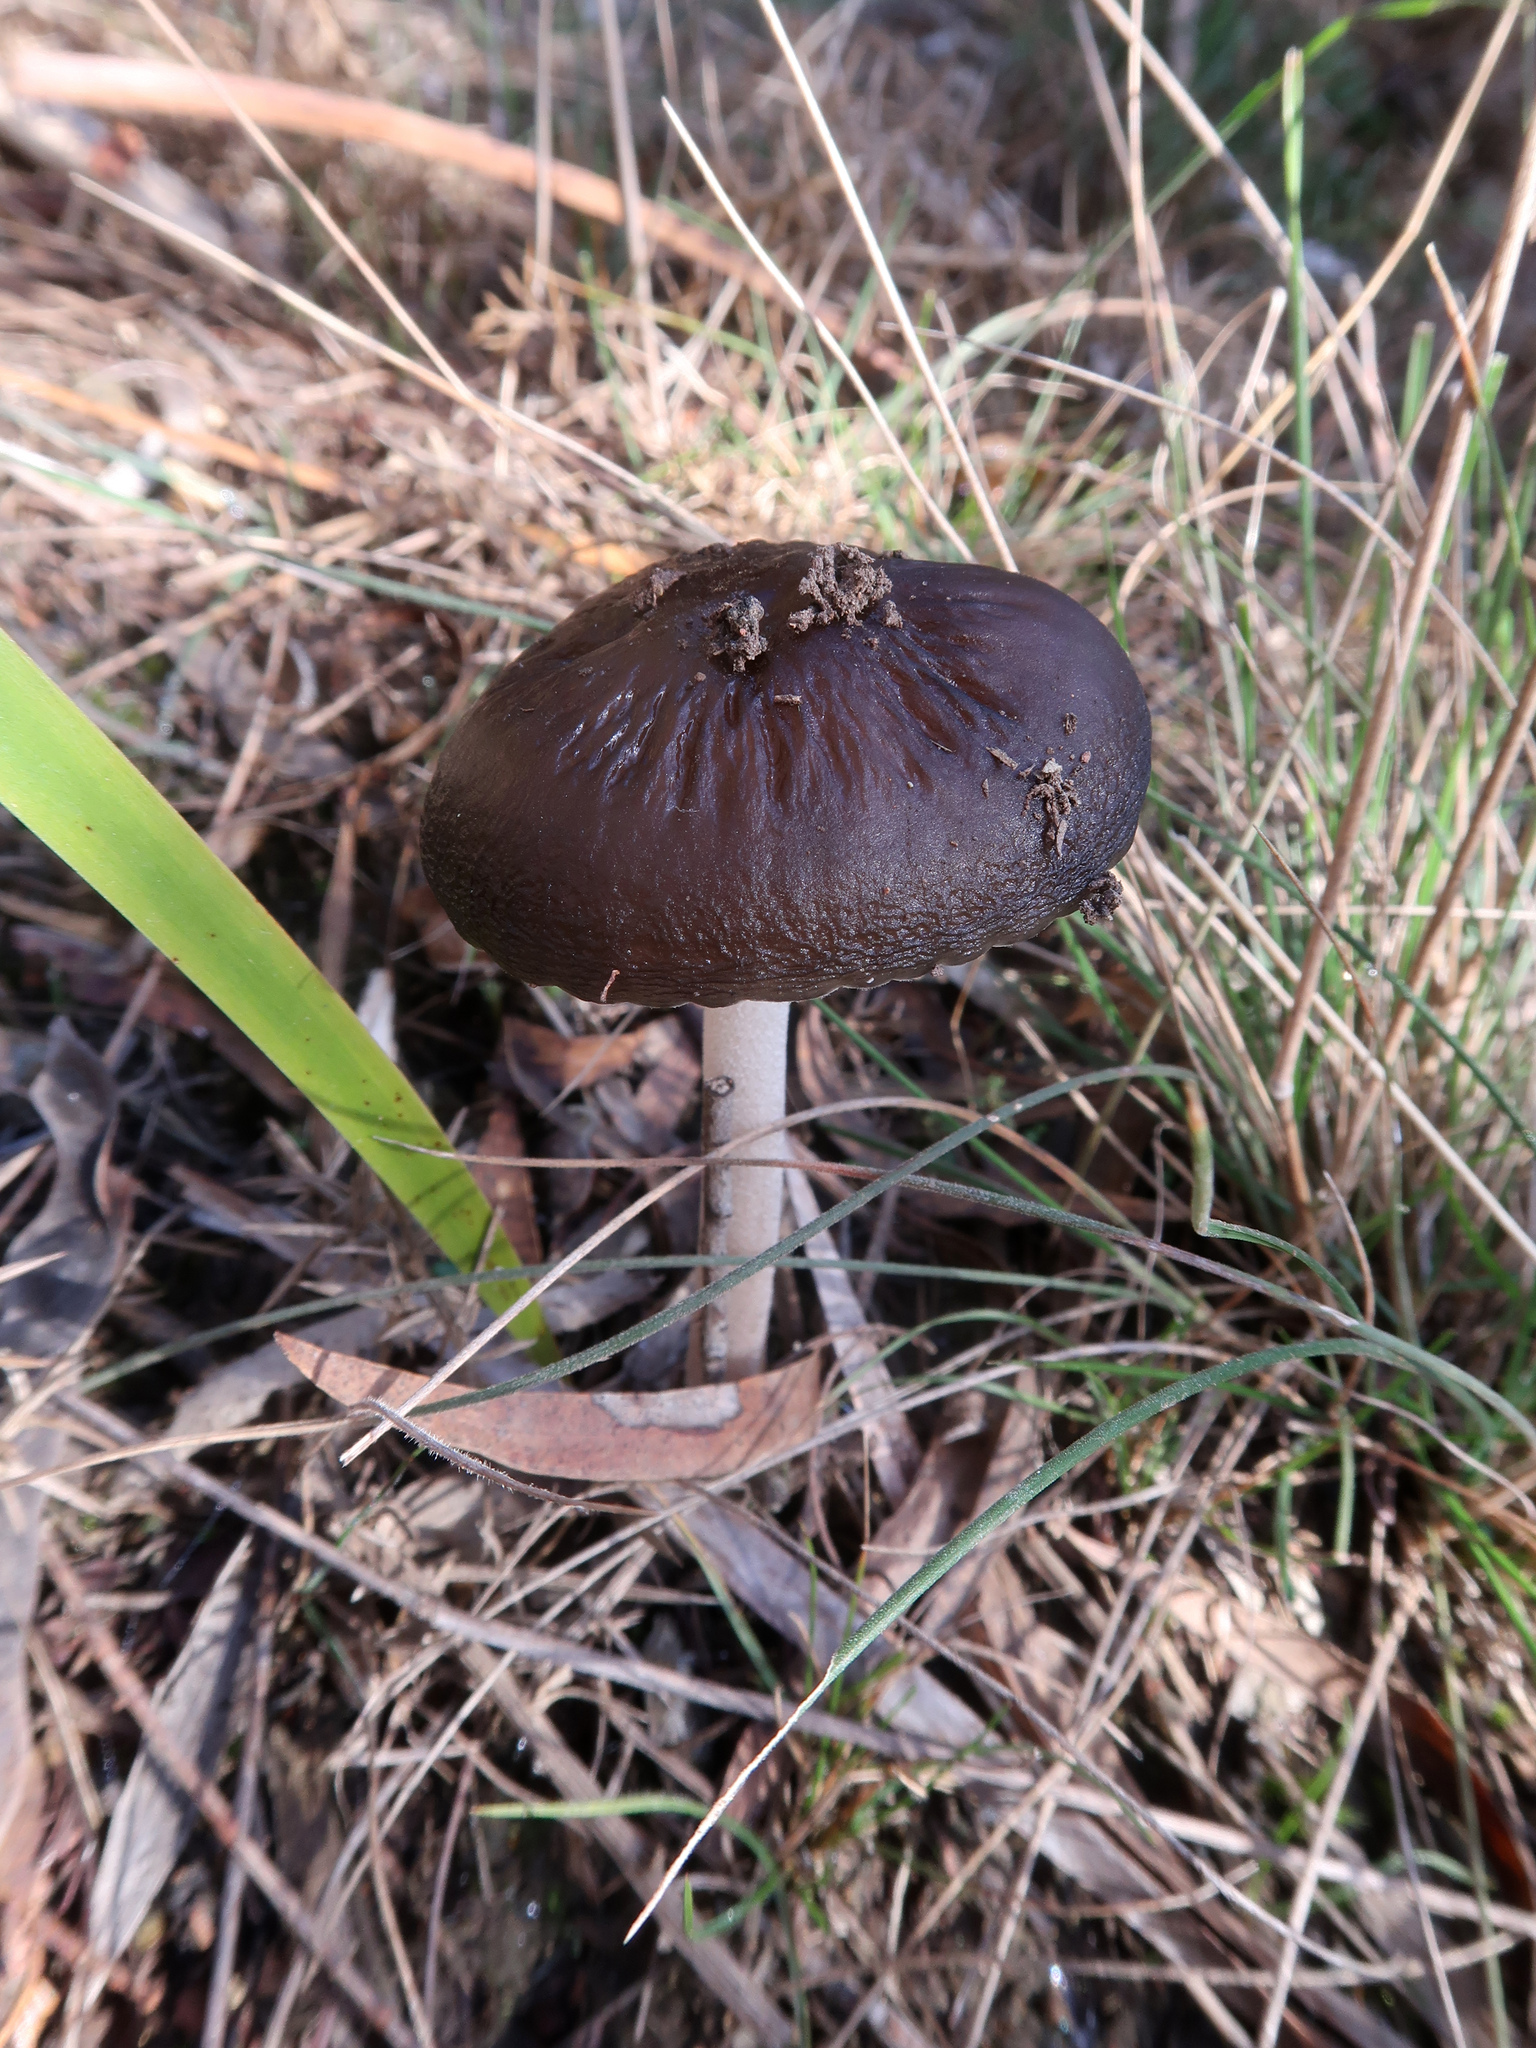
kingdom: Fungi
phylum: Basidiomycota
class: Agaricomycetes
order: Agaricales
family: Physalacriaceae
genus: Hymenopellis
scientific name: Hymenopellis gigaspora
